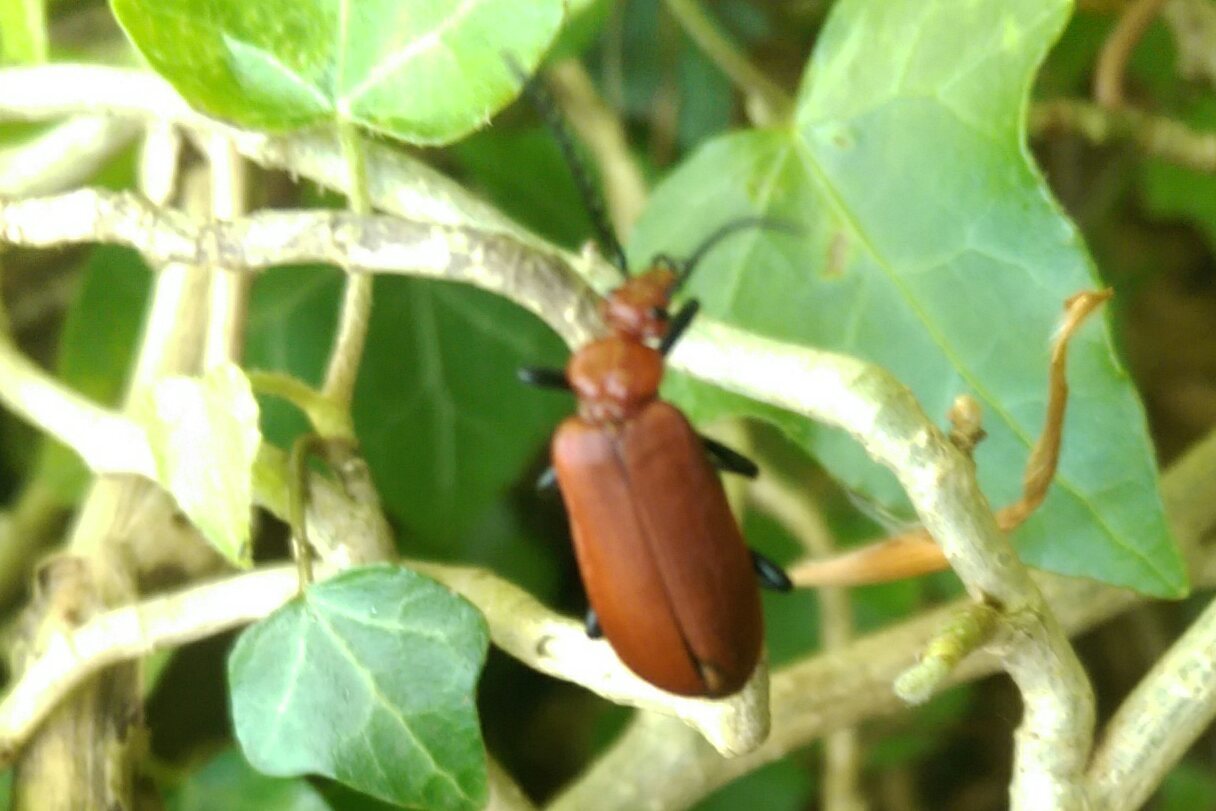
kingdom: Animalia
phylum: Arthropoda
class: Insecta
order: Coleoptera
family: Pyrochroidae
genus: Pyrochroa
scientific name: Pyrochroa serraticornis
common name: Red-headed cardinal beetle
